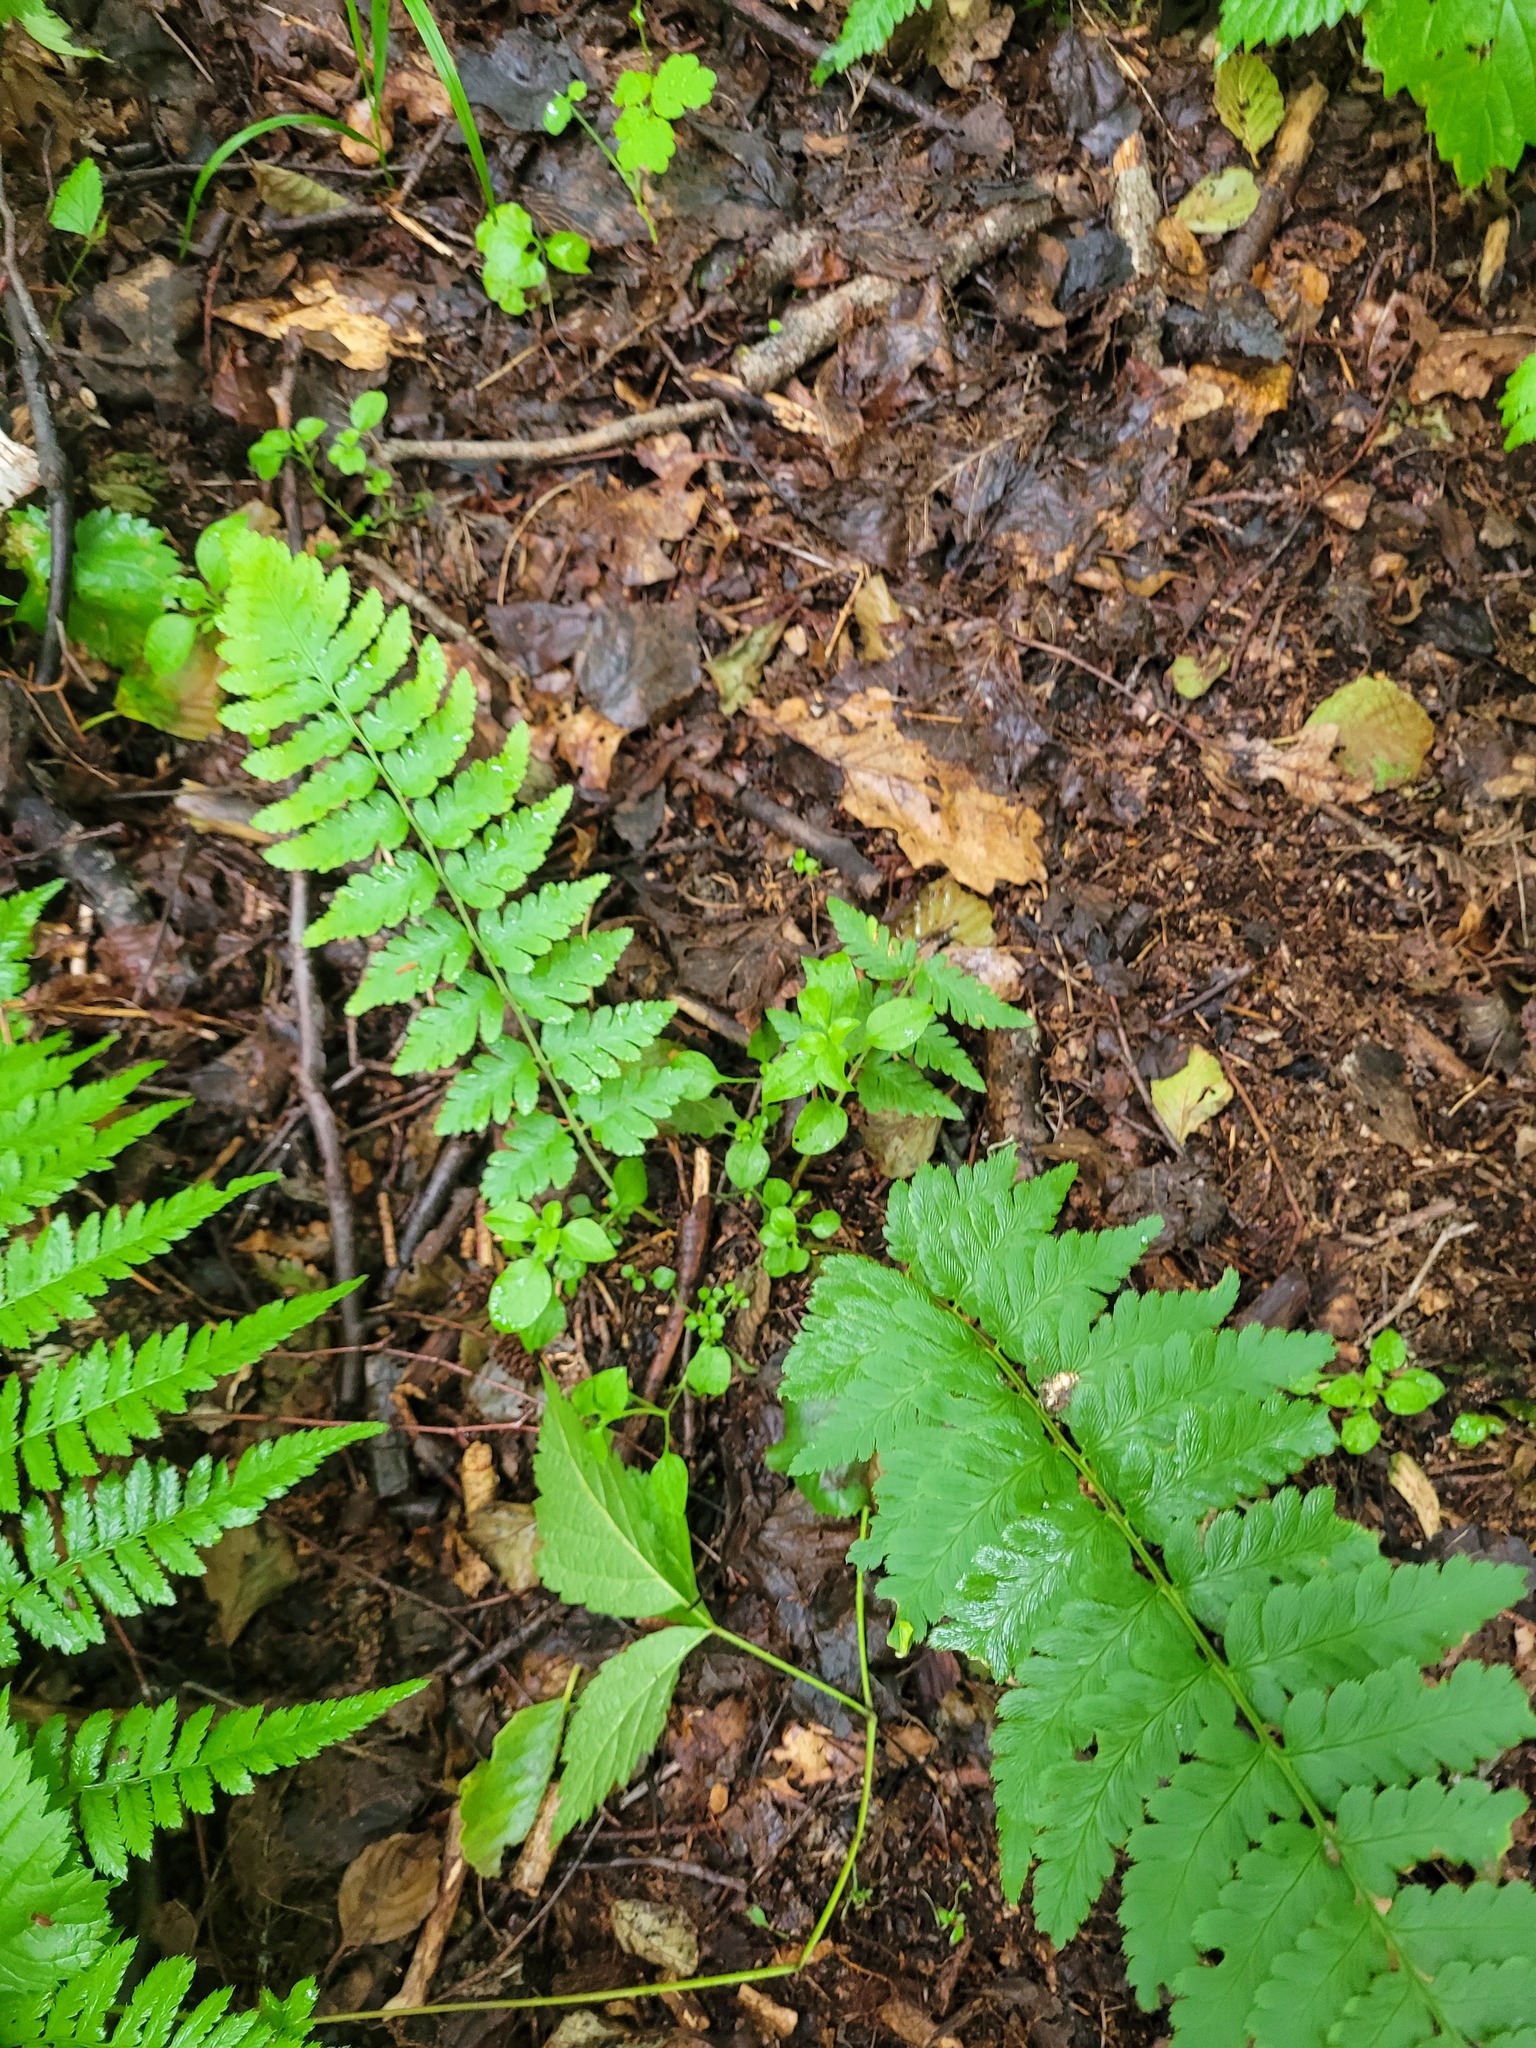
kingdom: Plantae
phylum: Tracheophyta
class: Polypodiopsida
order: Polypodiales
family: Dryopteridaceae
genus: Dryopteris
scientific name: Dryopteris cristata
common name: Crested wood fern
